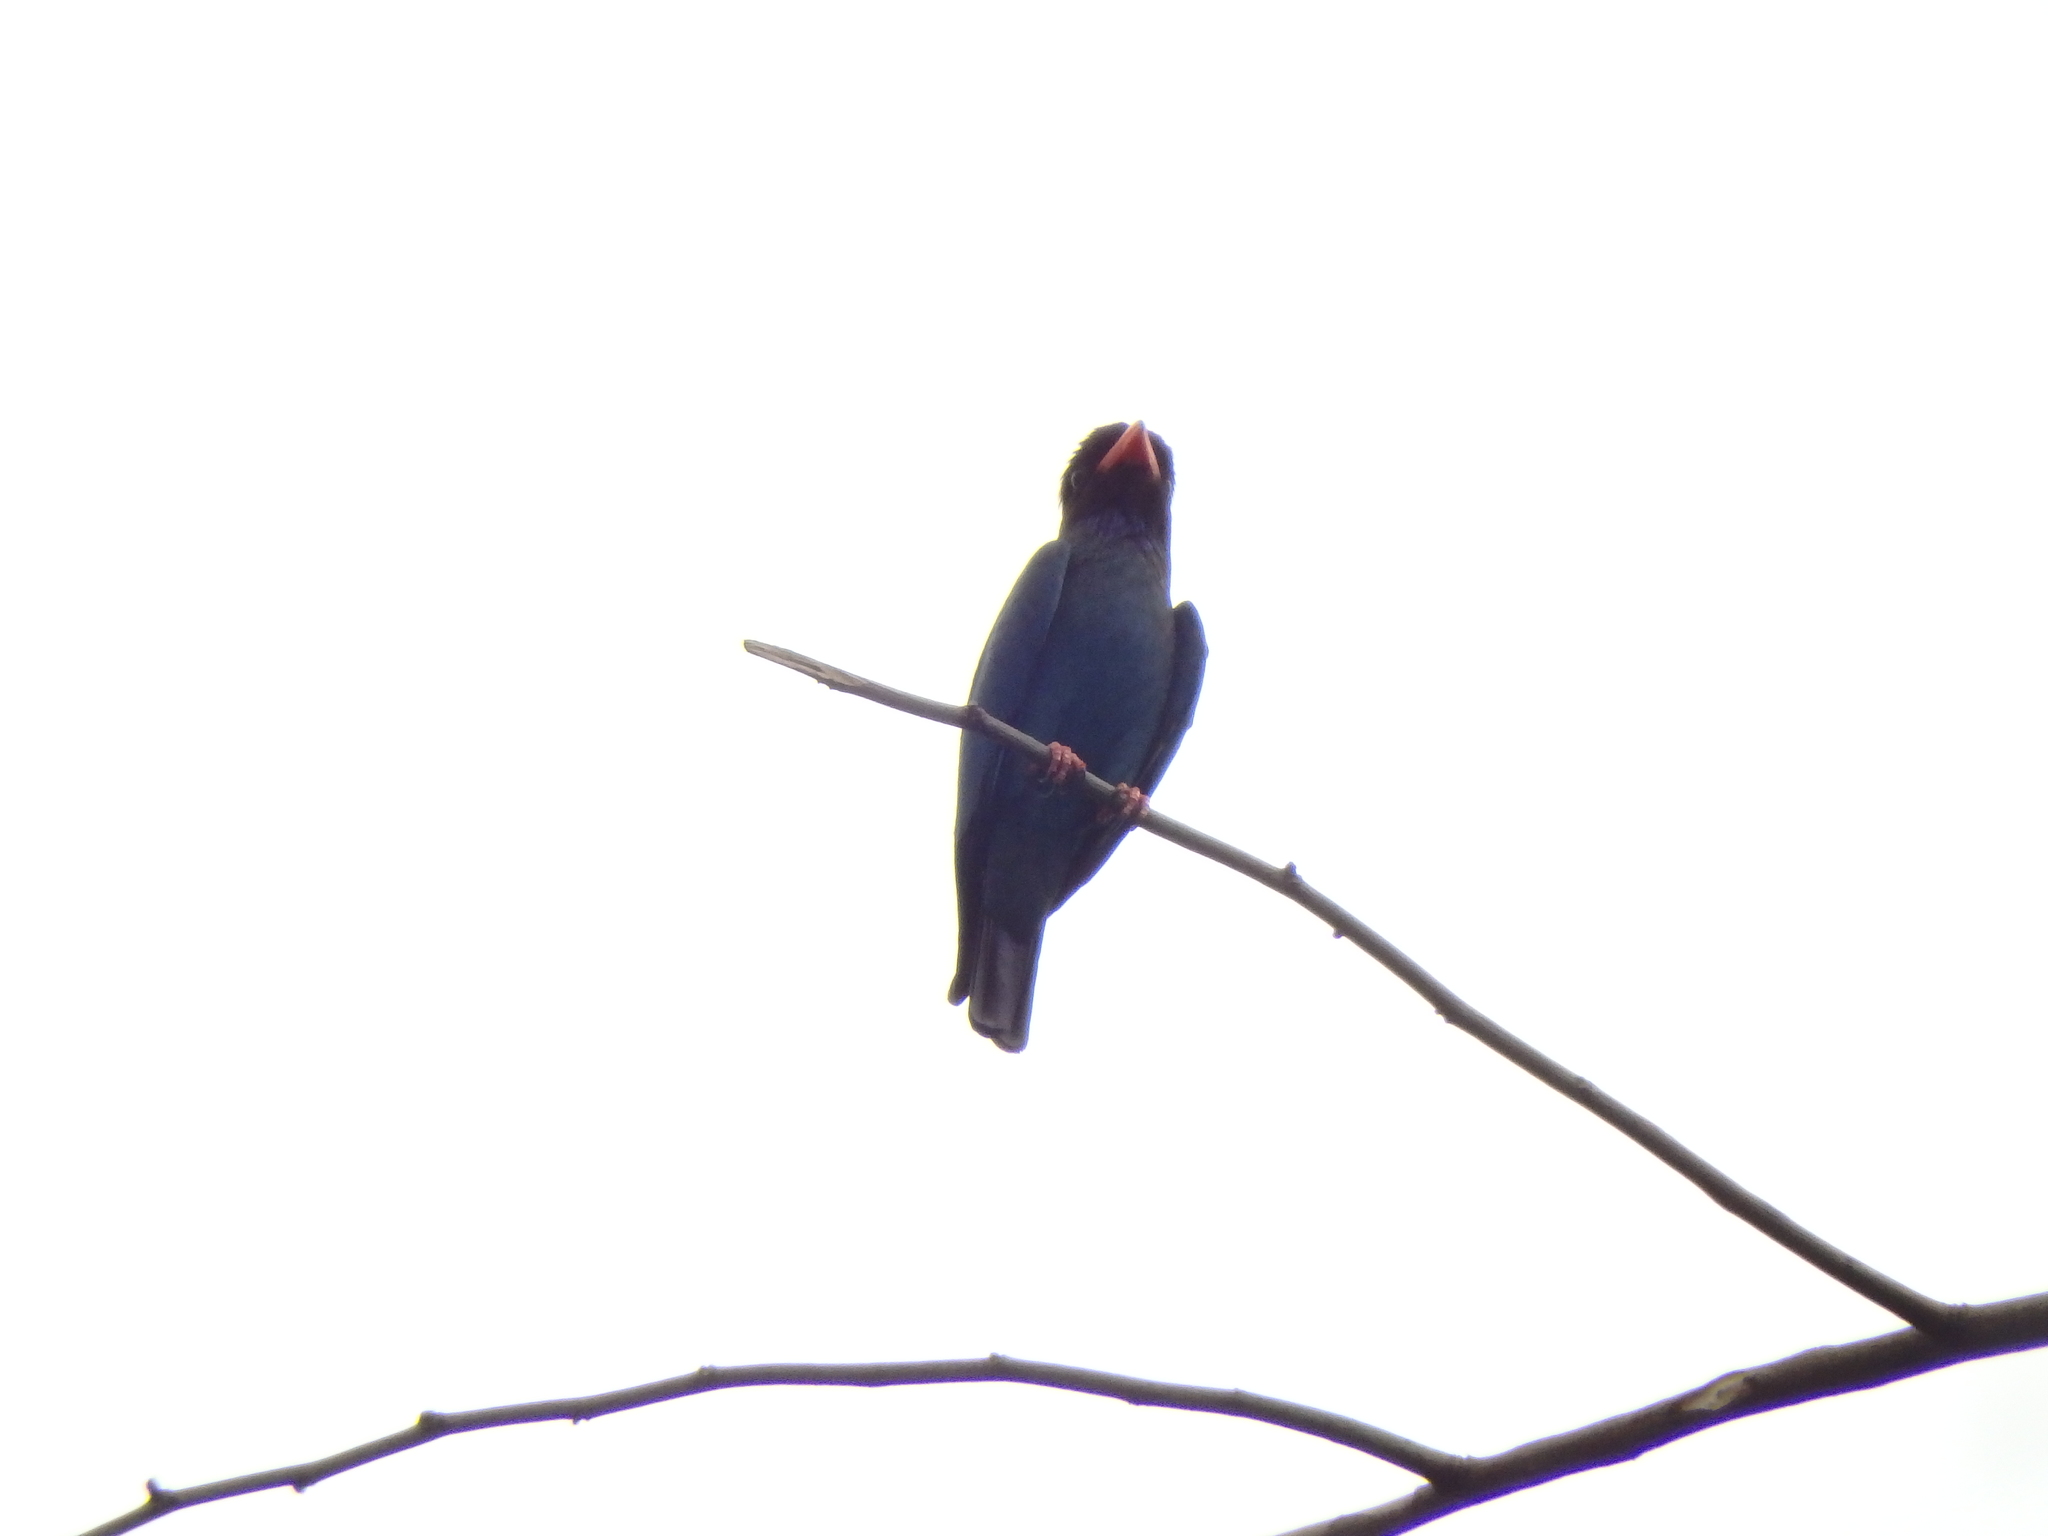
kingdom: Animalia
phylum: Chordata
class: Aves
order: Coraciiformes
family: Coraciidae
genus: Eurystomus
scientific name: Eurystomus orientalis
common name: Oriental dollarbird
